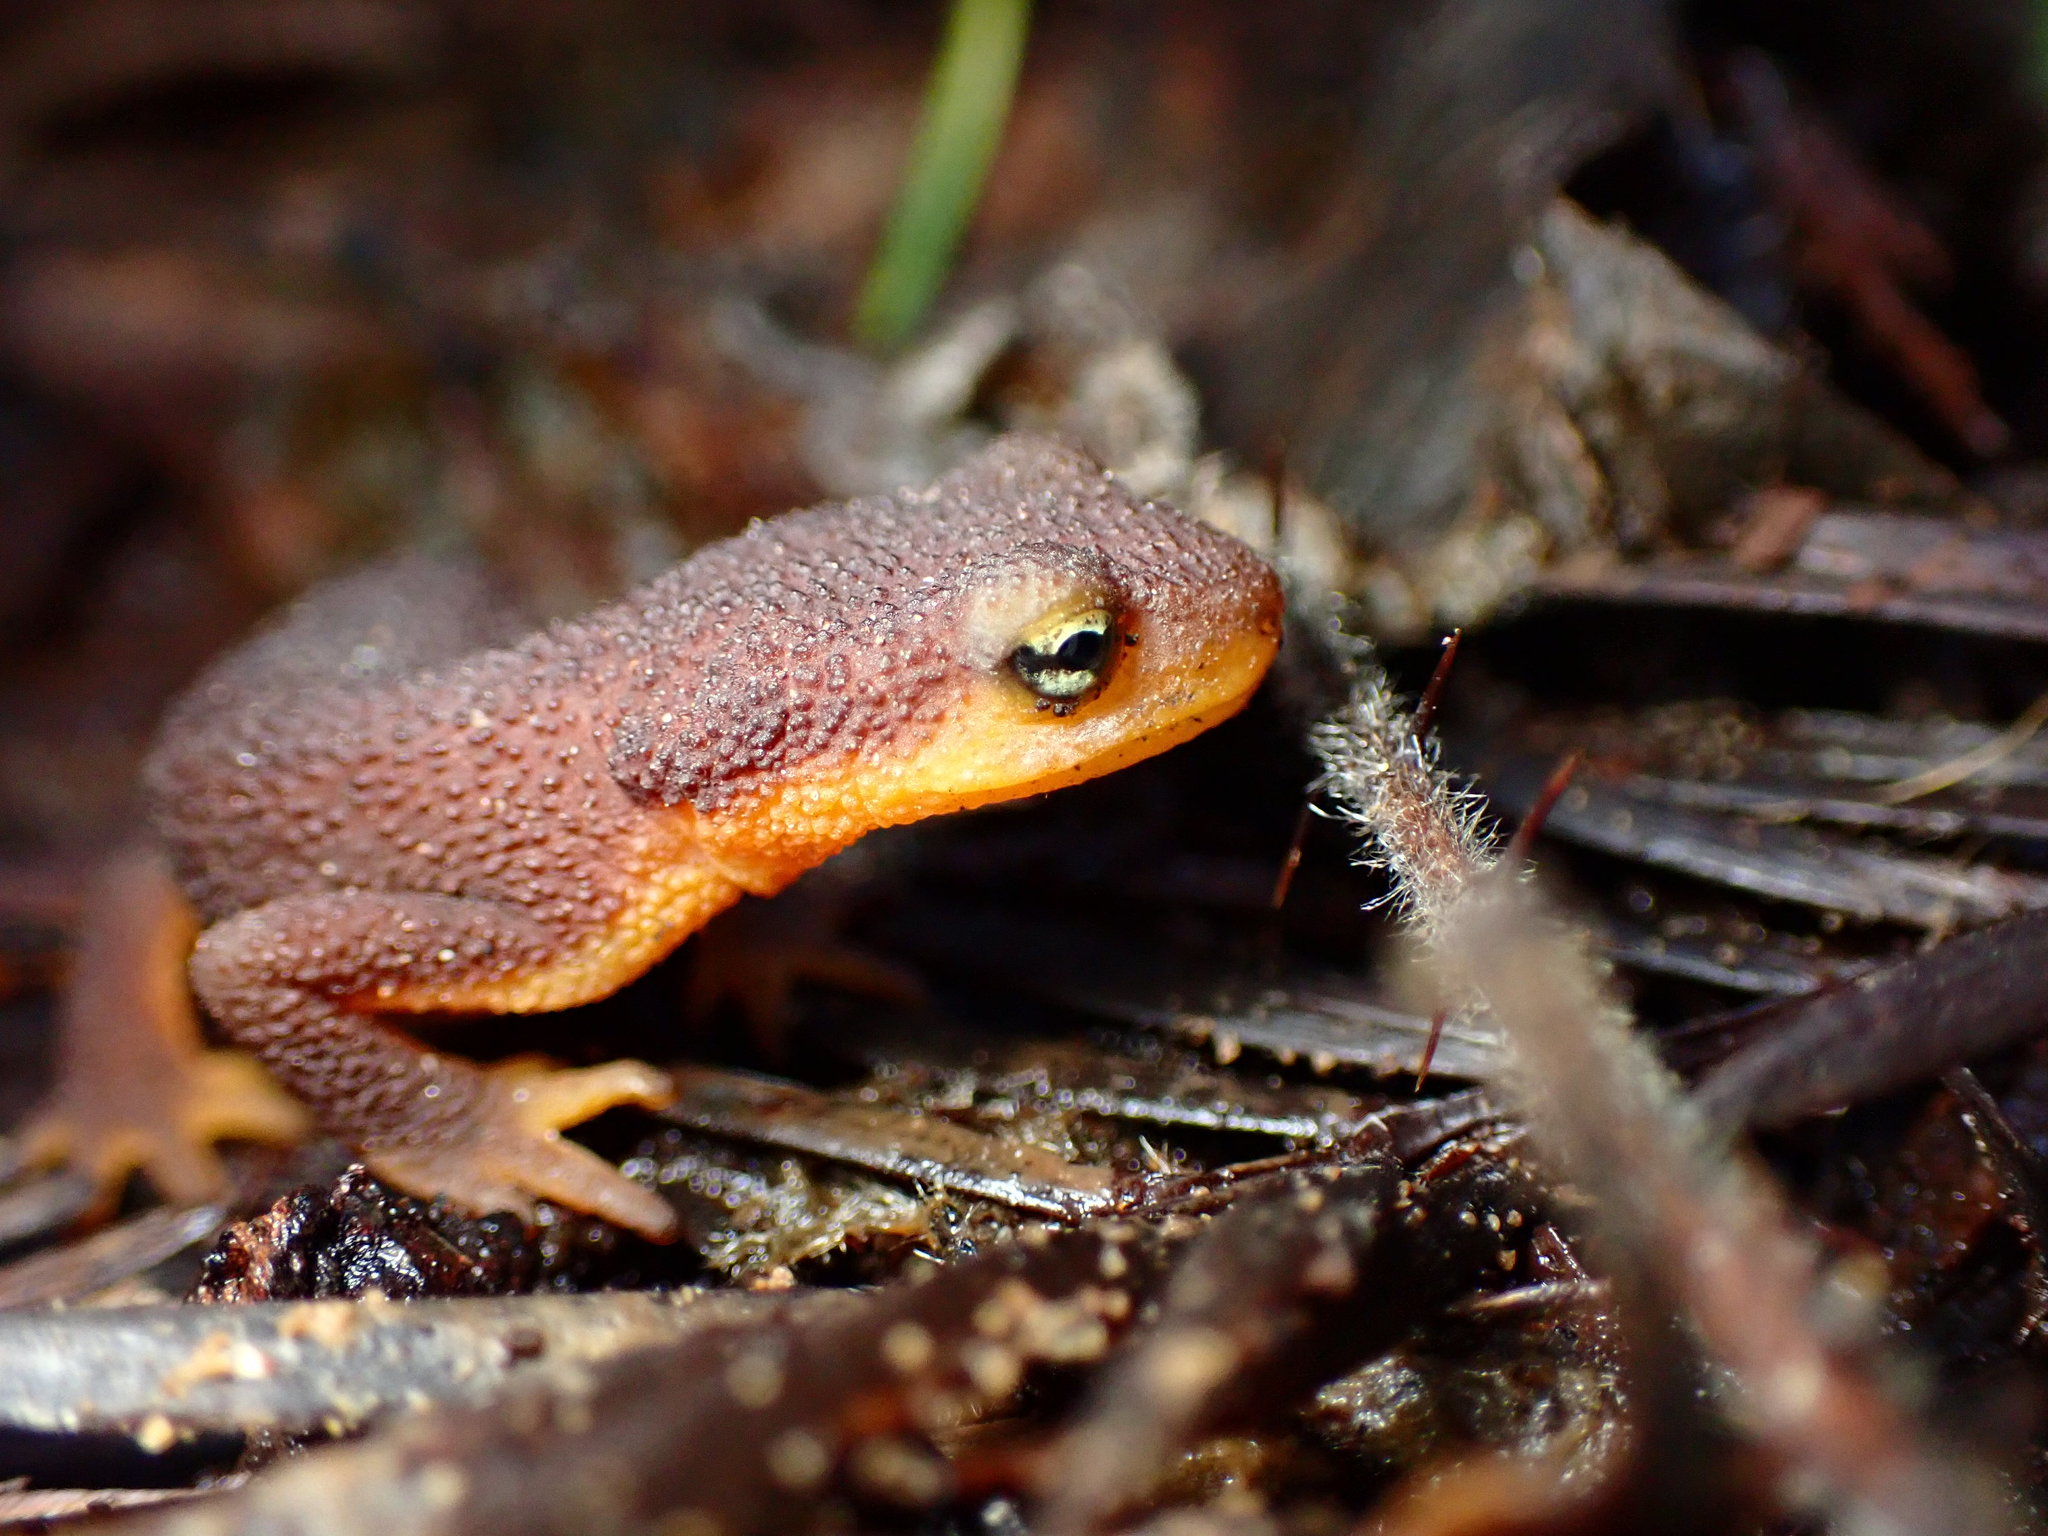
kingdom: Animalia
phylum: Chordata
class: Amphibia
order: Caudata
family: Salamandridae
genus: Taricha
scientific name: Taricha torosa
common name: California newt
